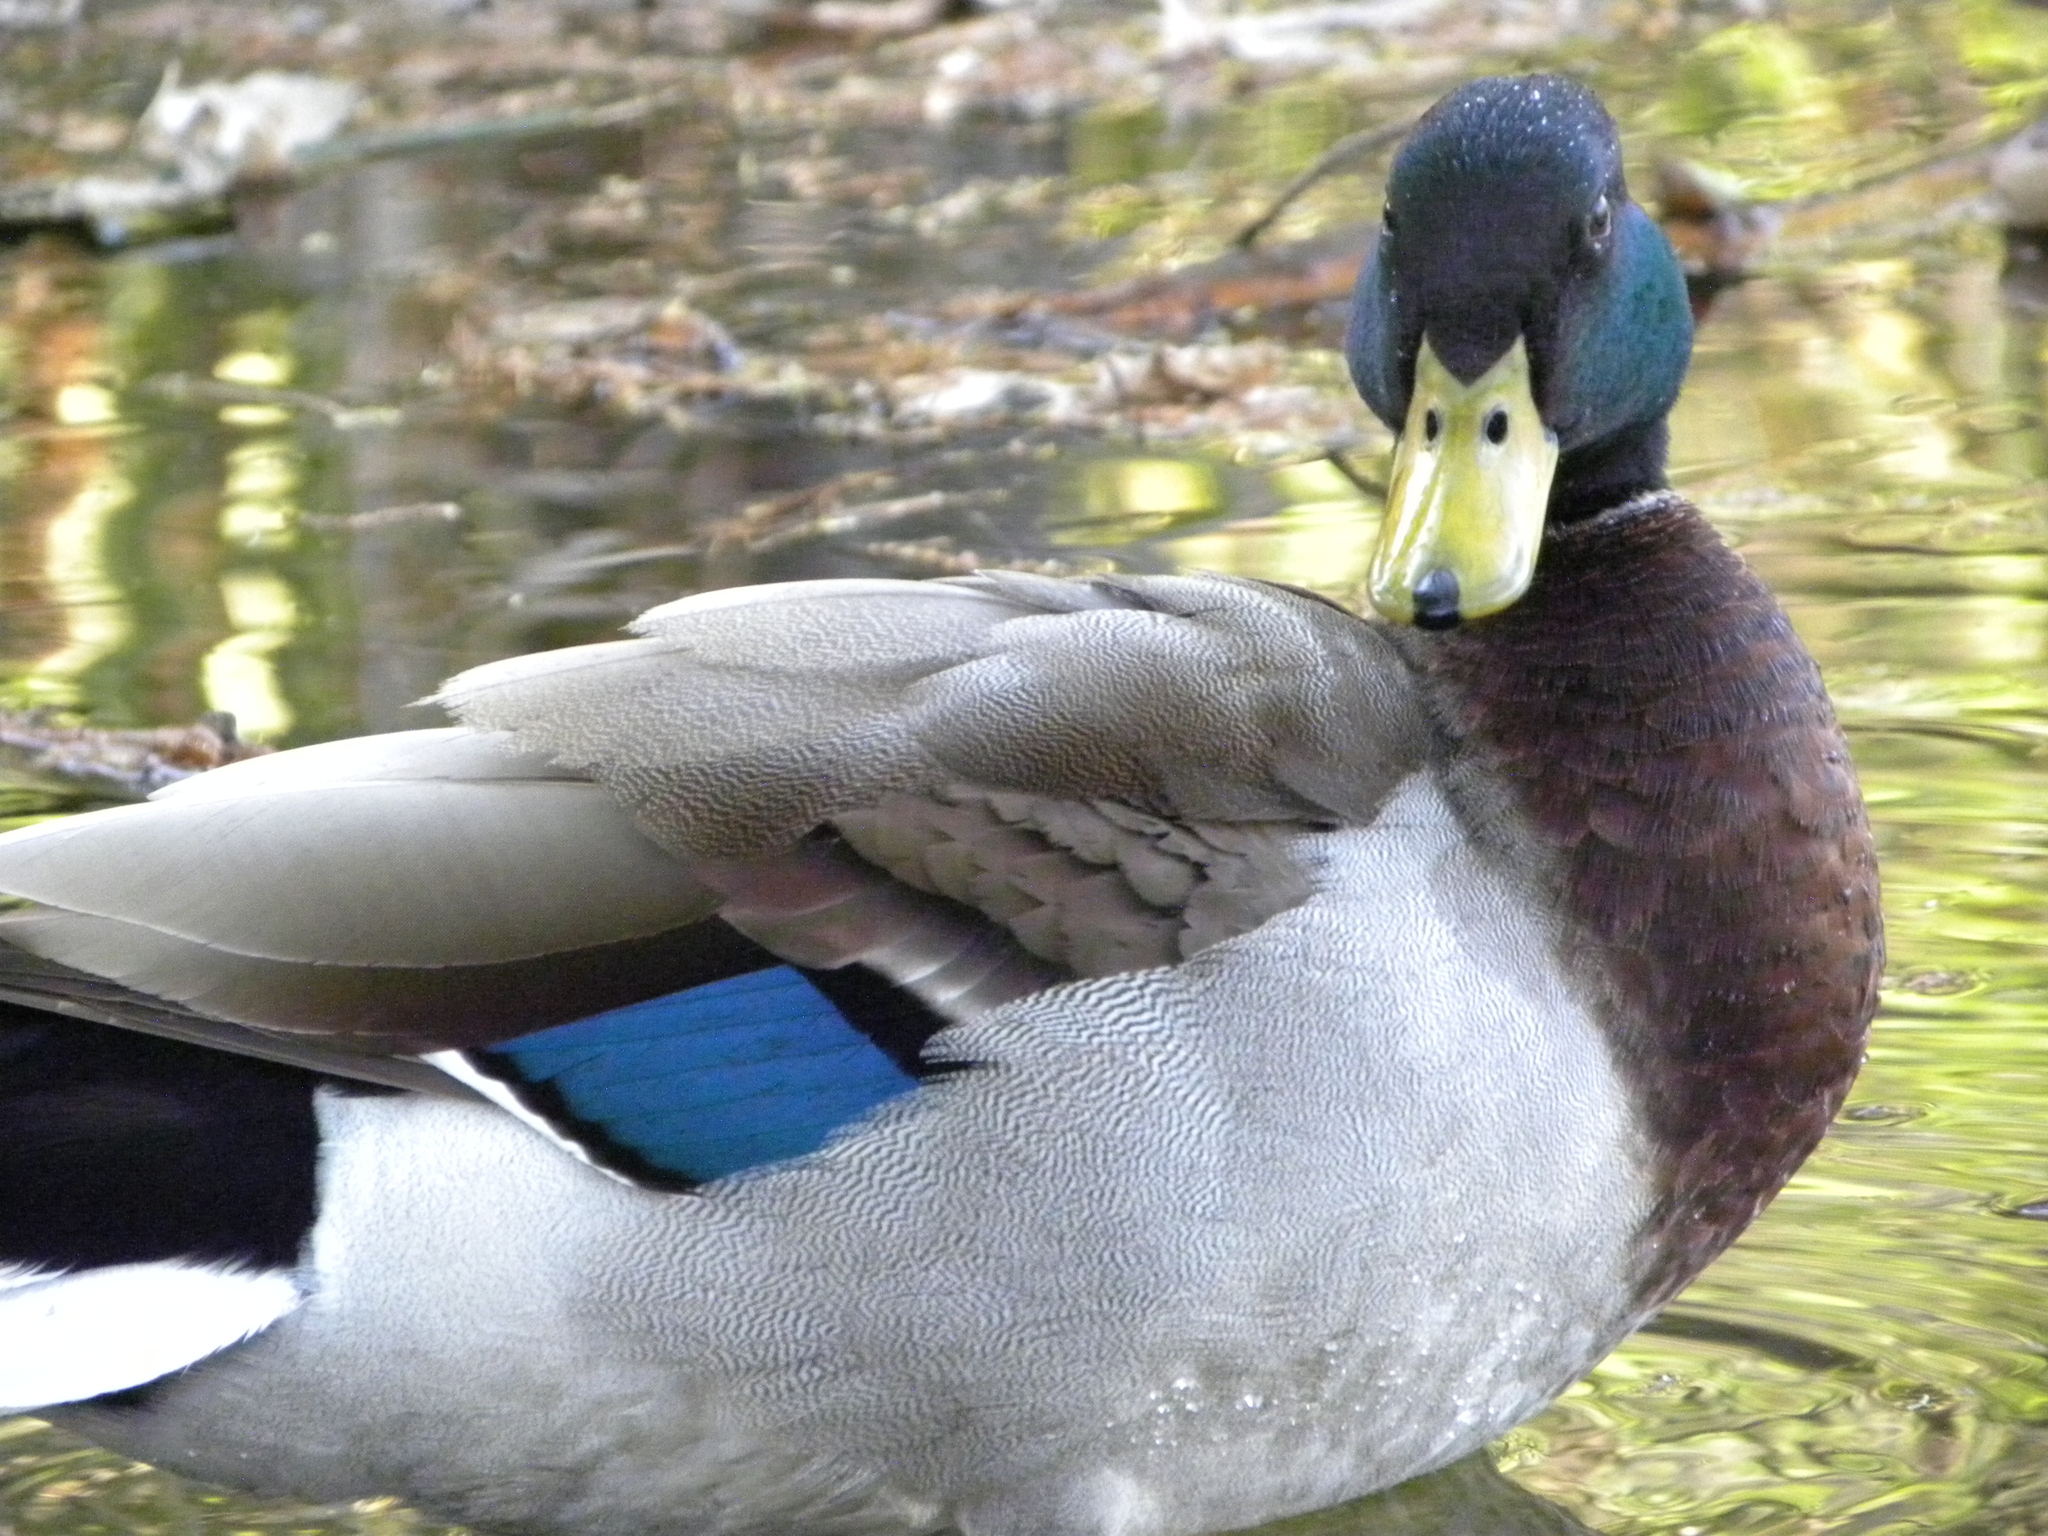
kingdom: Animalia
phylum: Chordata
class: Aves
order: Anseriformes
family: Anatidae
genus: Anas
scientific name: Anas platyrhynchos
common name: Mallard
